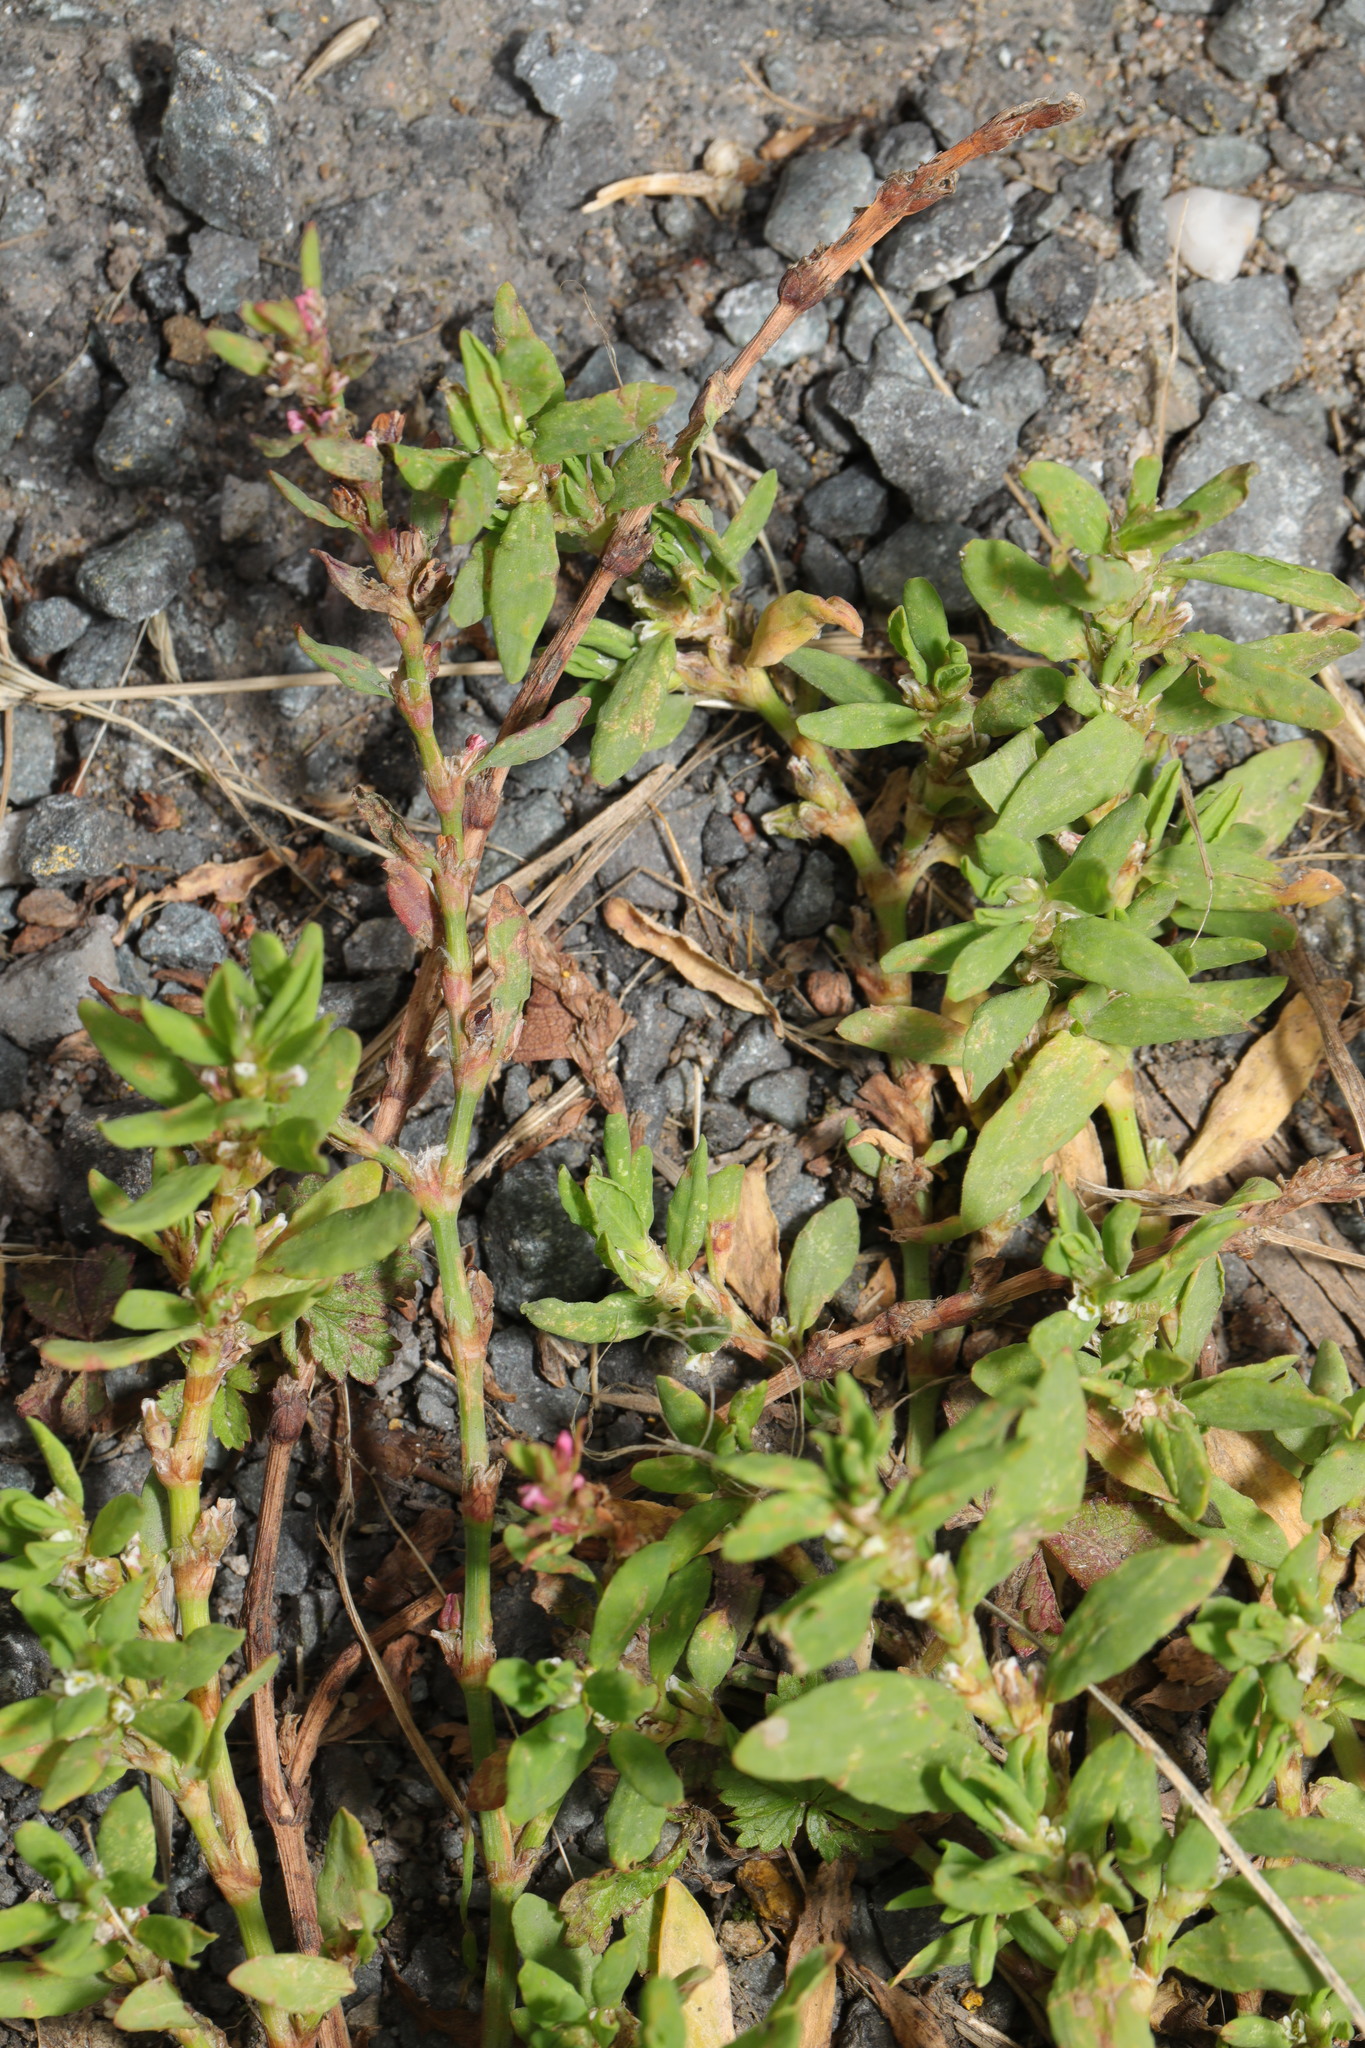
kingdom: Plantae
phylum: Tracheophyta
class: Magnoliopsida
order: Caryophyllales
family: Polygonaceae
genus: Polygonum
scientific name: Polygonum aviculare
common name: Prostrate knotweed
